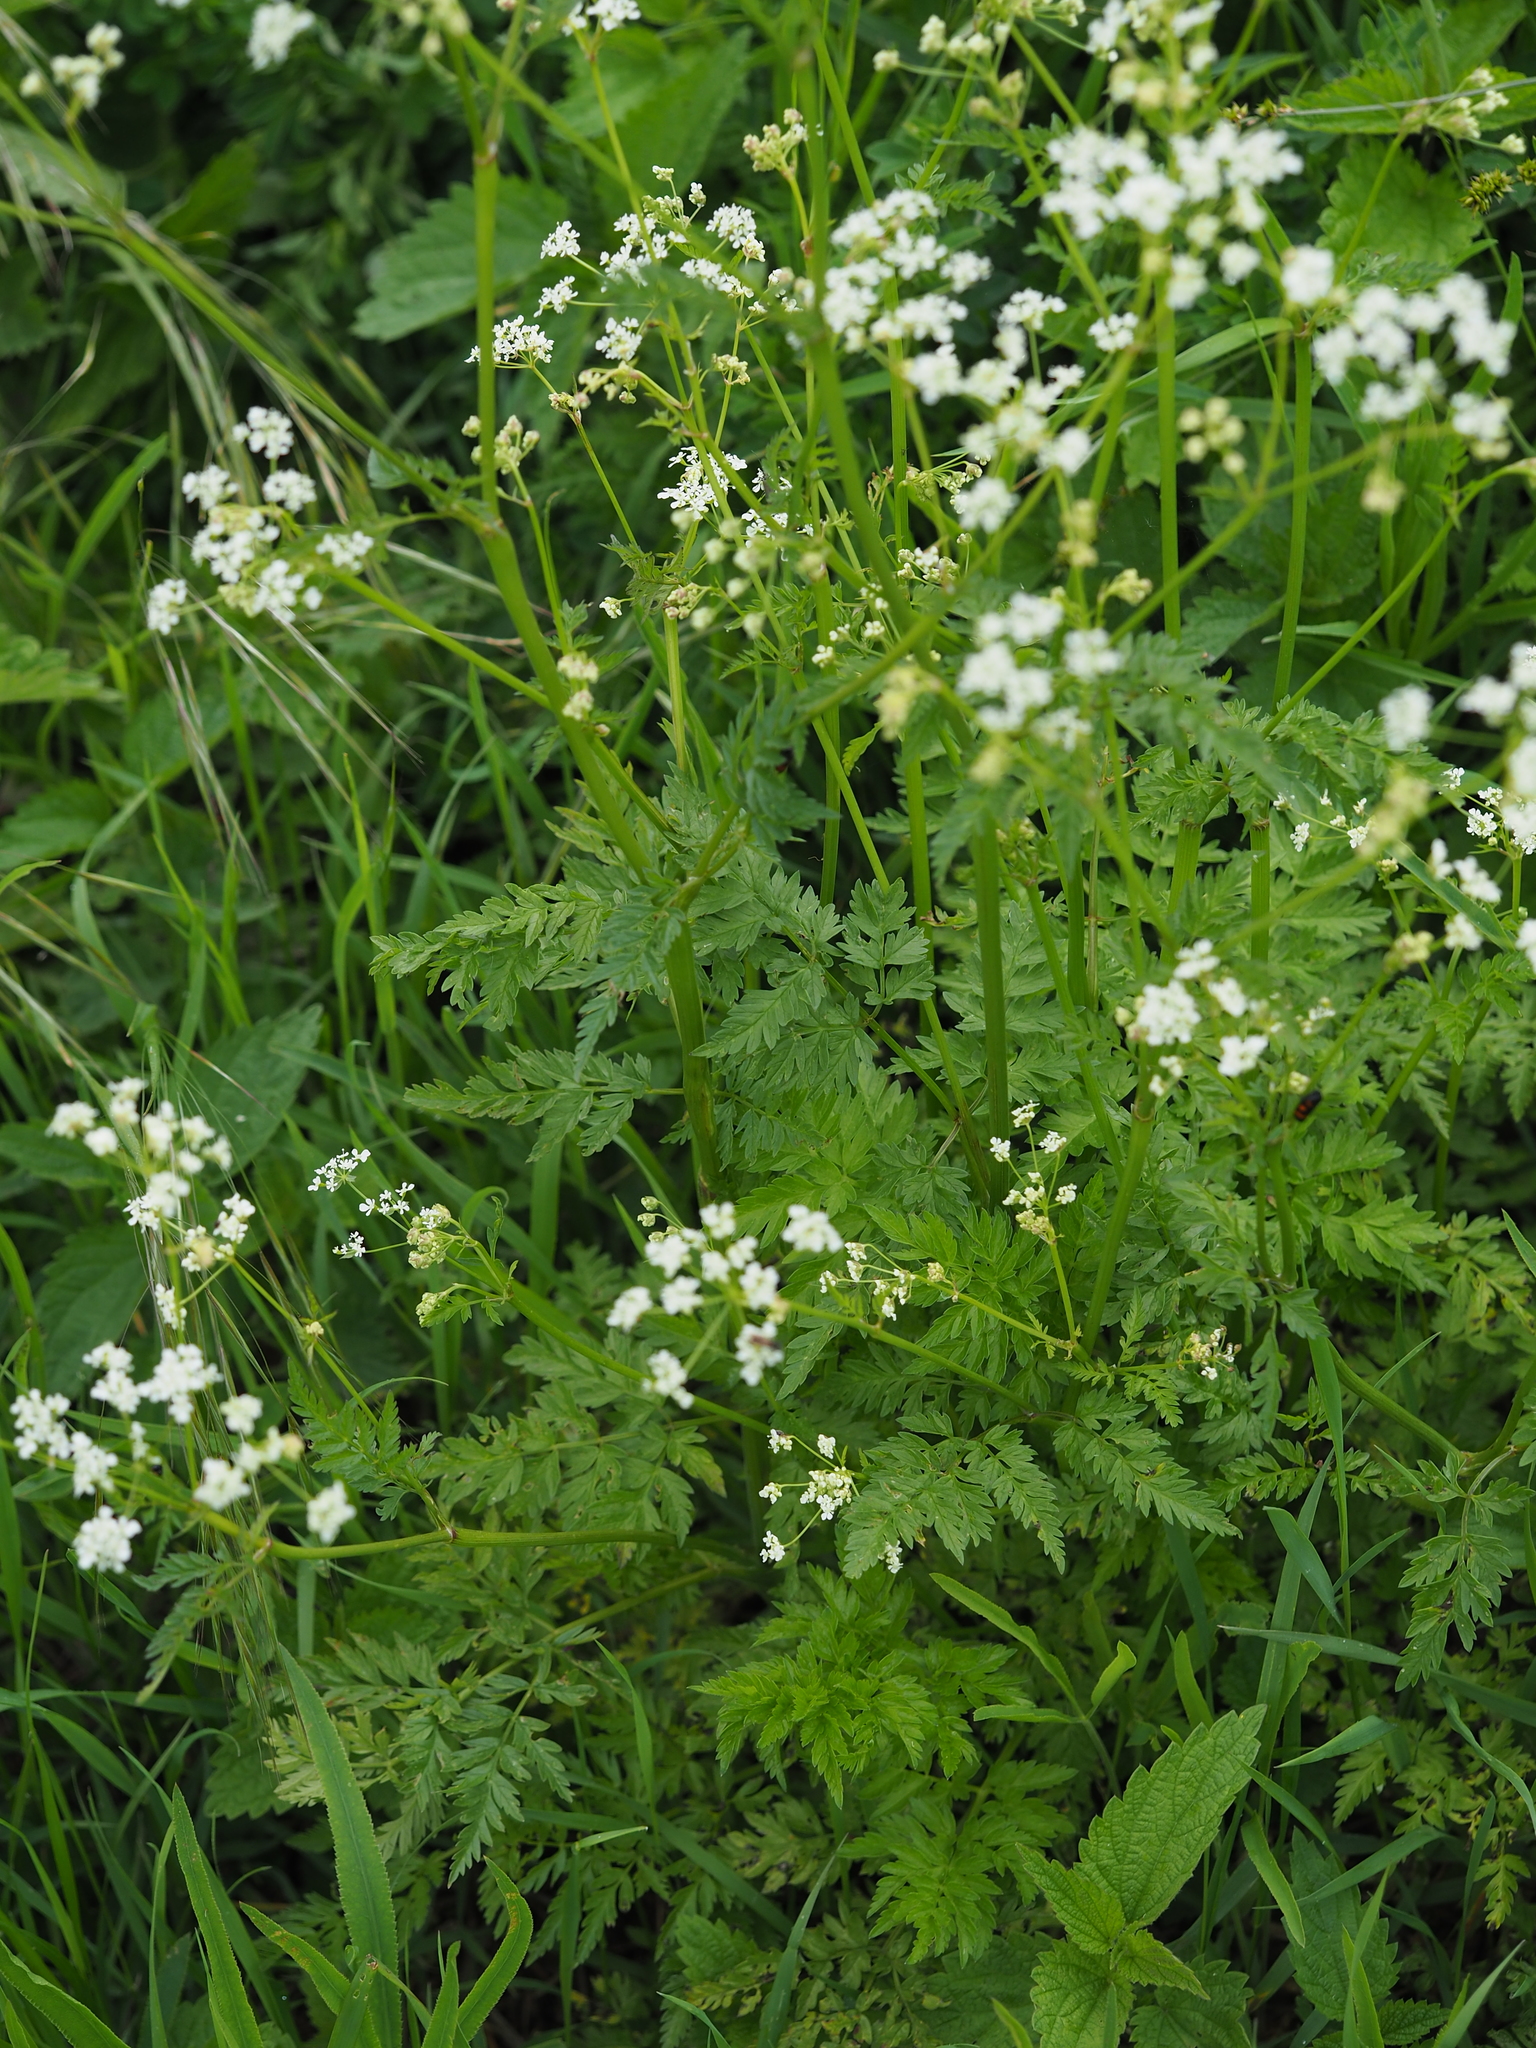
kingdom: Plantae
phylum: Tracheophyta
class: Magnoliopsida
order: Apiales
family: Apiaceae
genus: Anthriscus
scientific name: Anthriscus sylvestris
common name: Cow parsley
